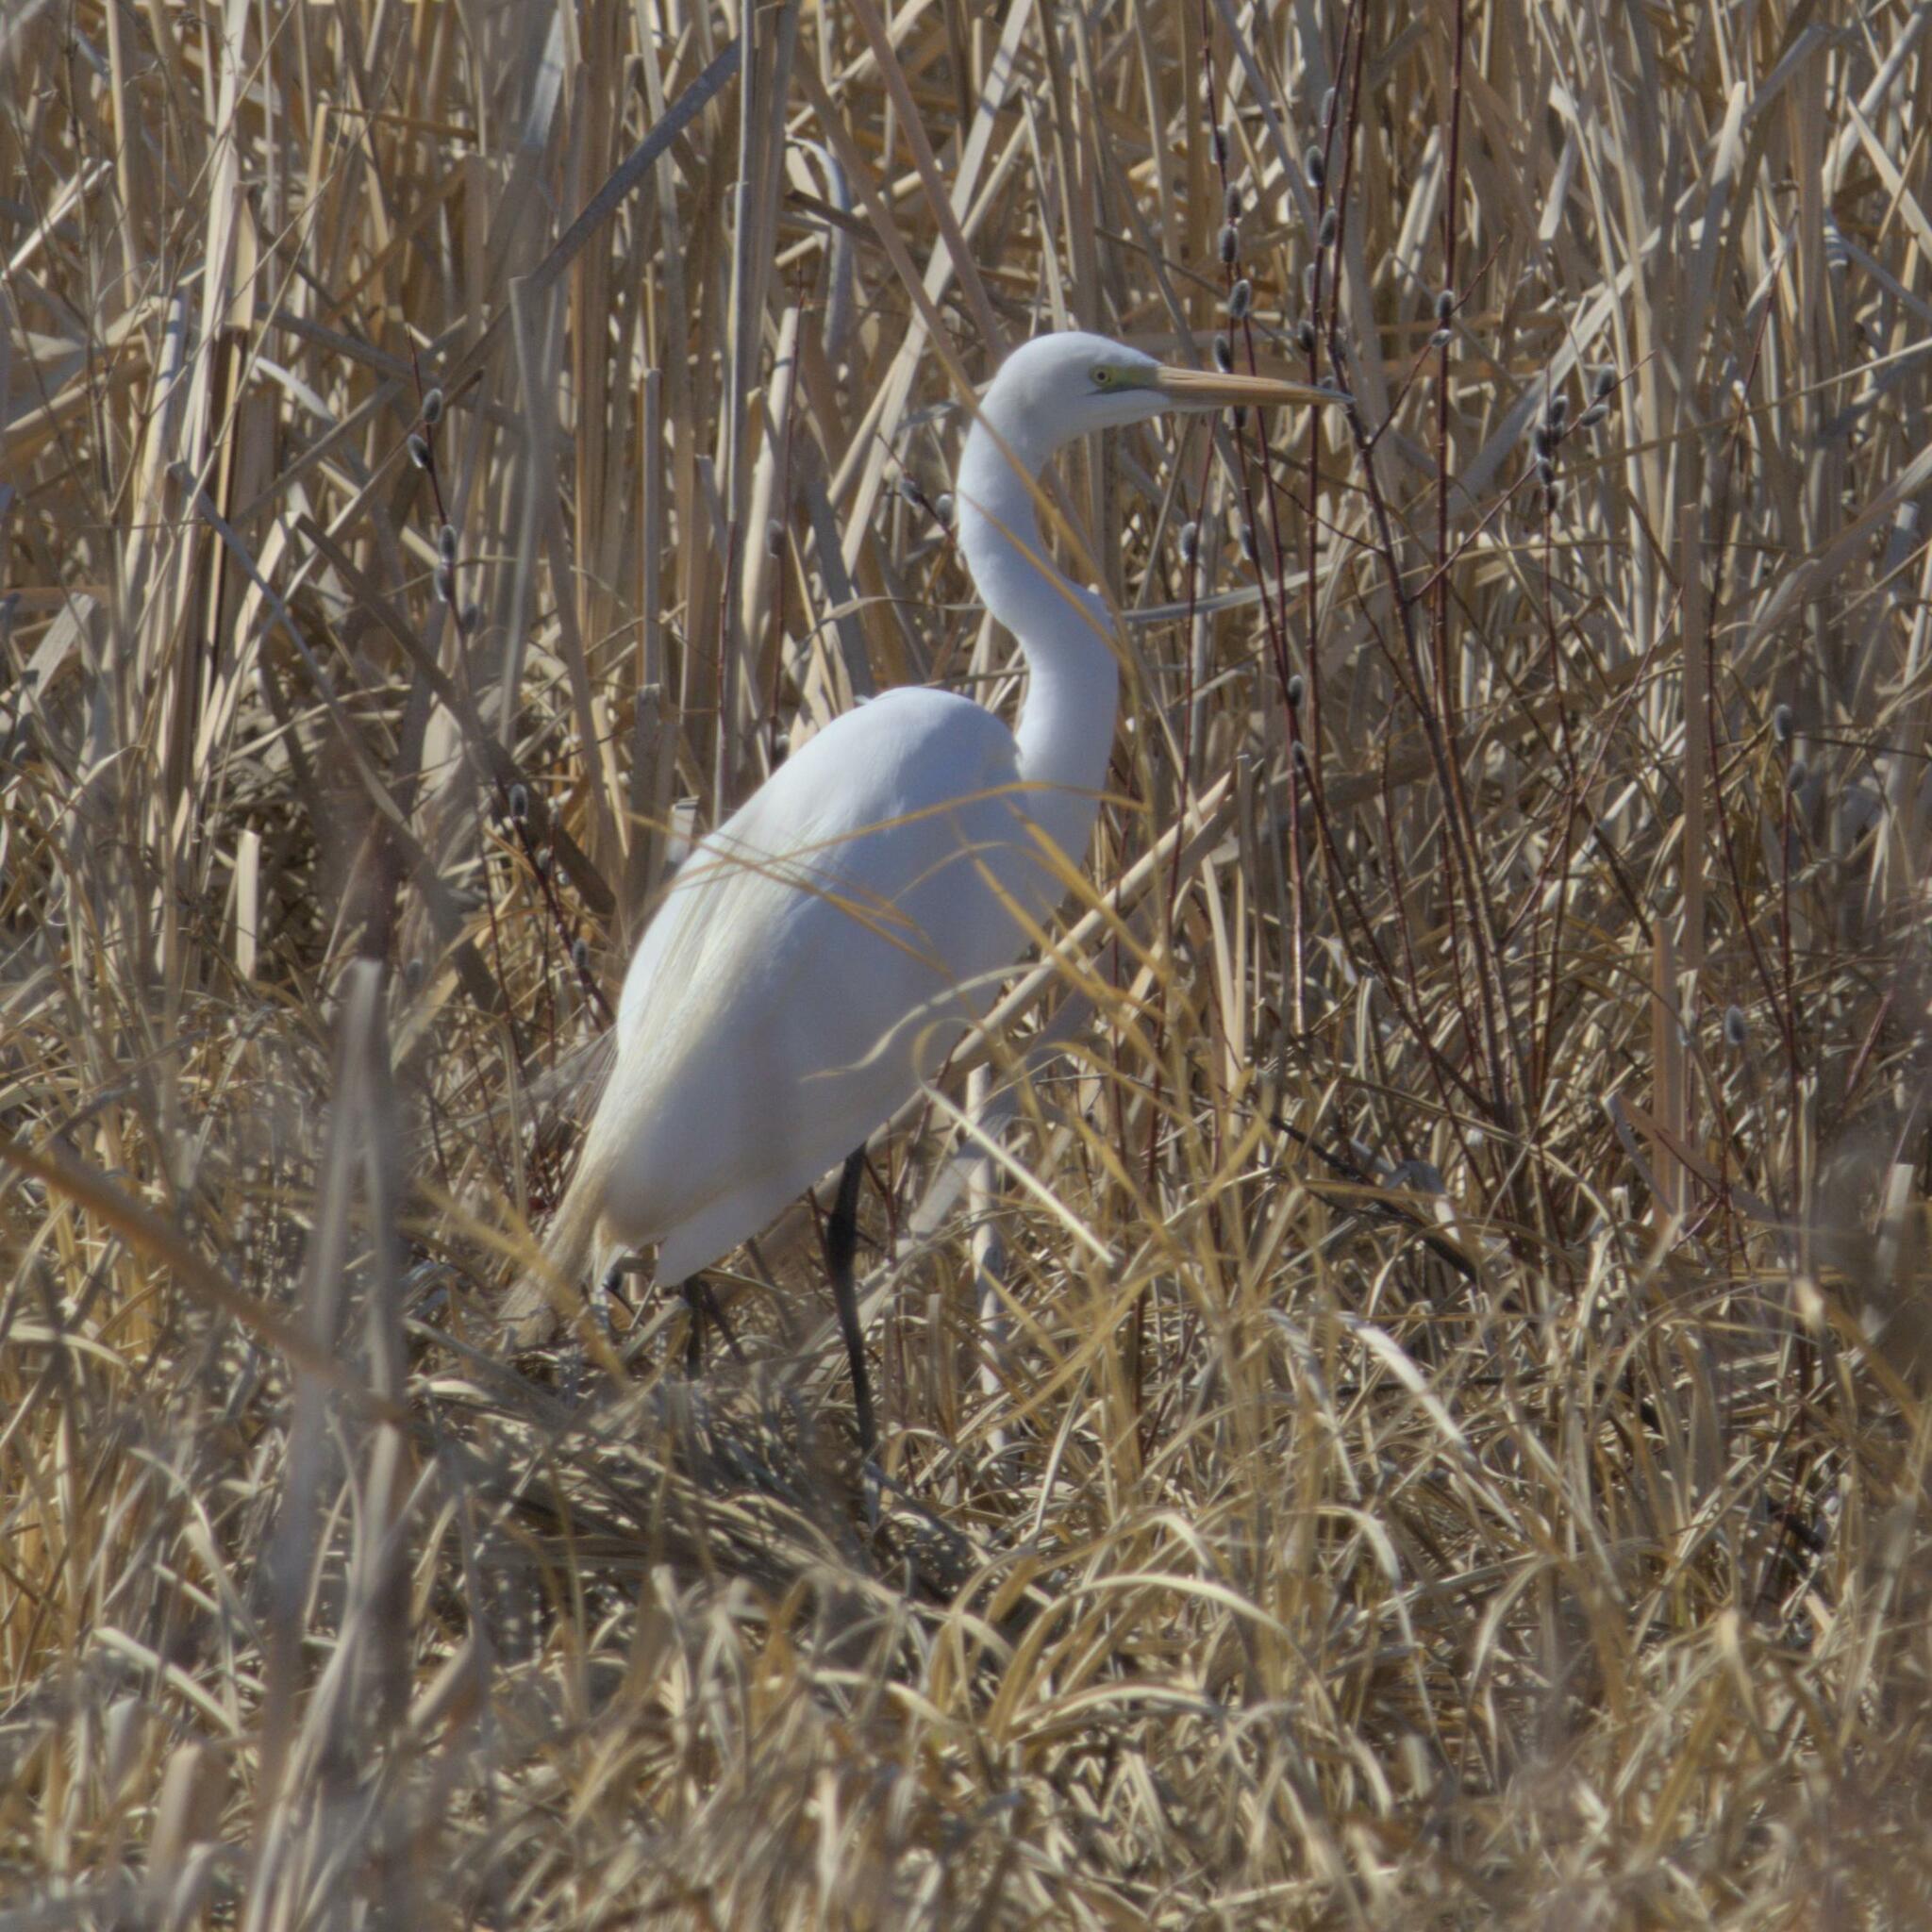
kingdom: Animalia
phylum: Chordata
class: Aves
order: Pelecaniformes
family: Ardeidae
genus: Ardea
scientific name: Ardea alba
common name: Great egret
